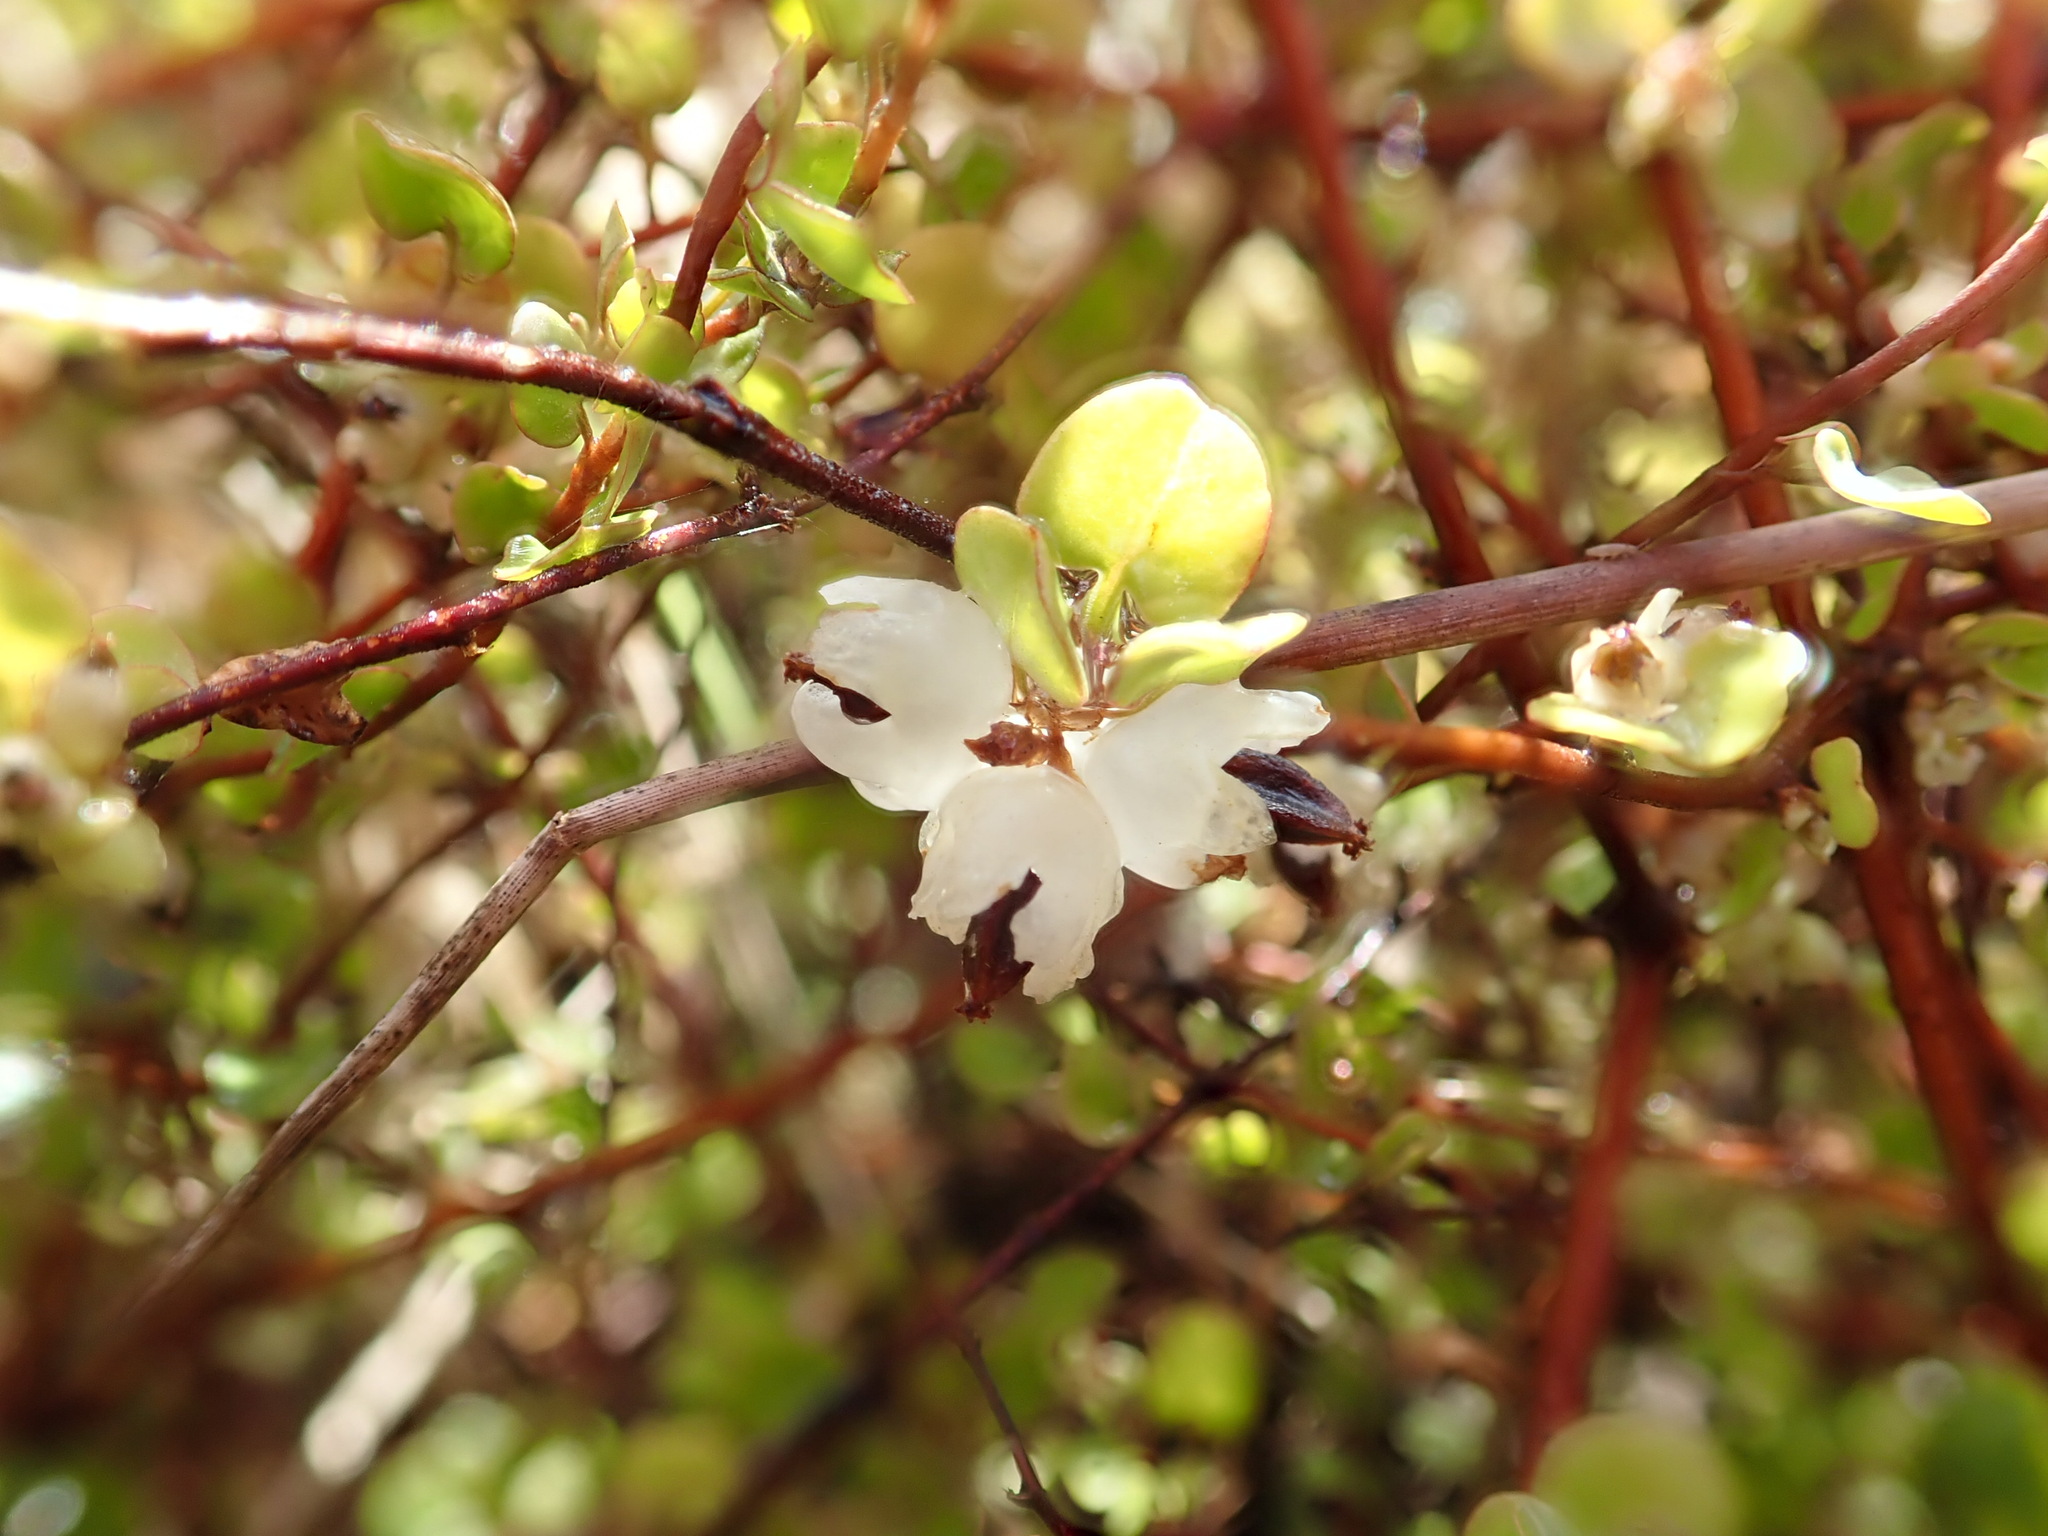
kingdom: Plantae
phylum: Tracheophyta
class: Magnoliopsida
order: Caryophyllales
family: Polygonaceae
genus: Muehlenbeckia
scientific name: Muehlenbeckia complexa
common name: Wireplant
